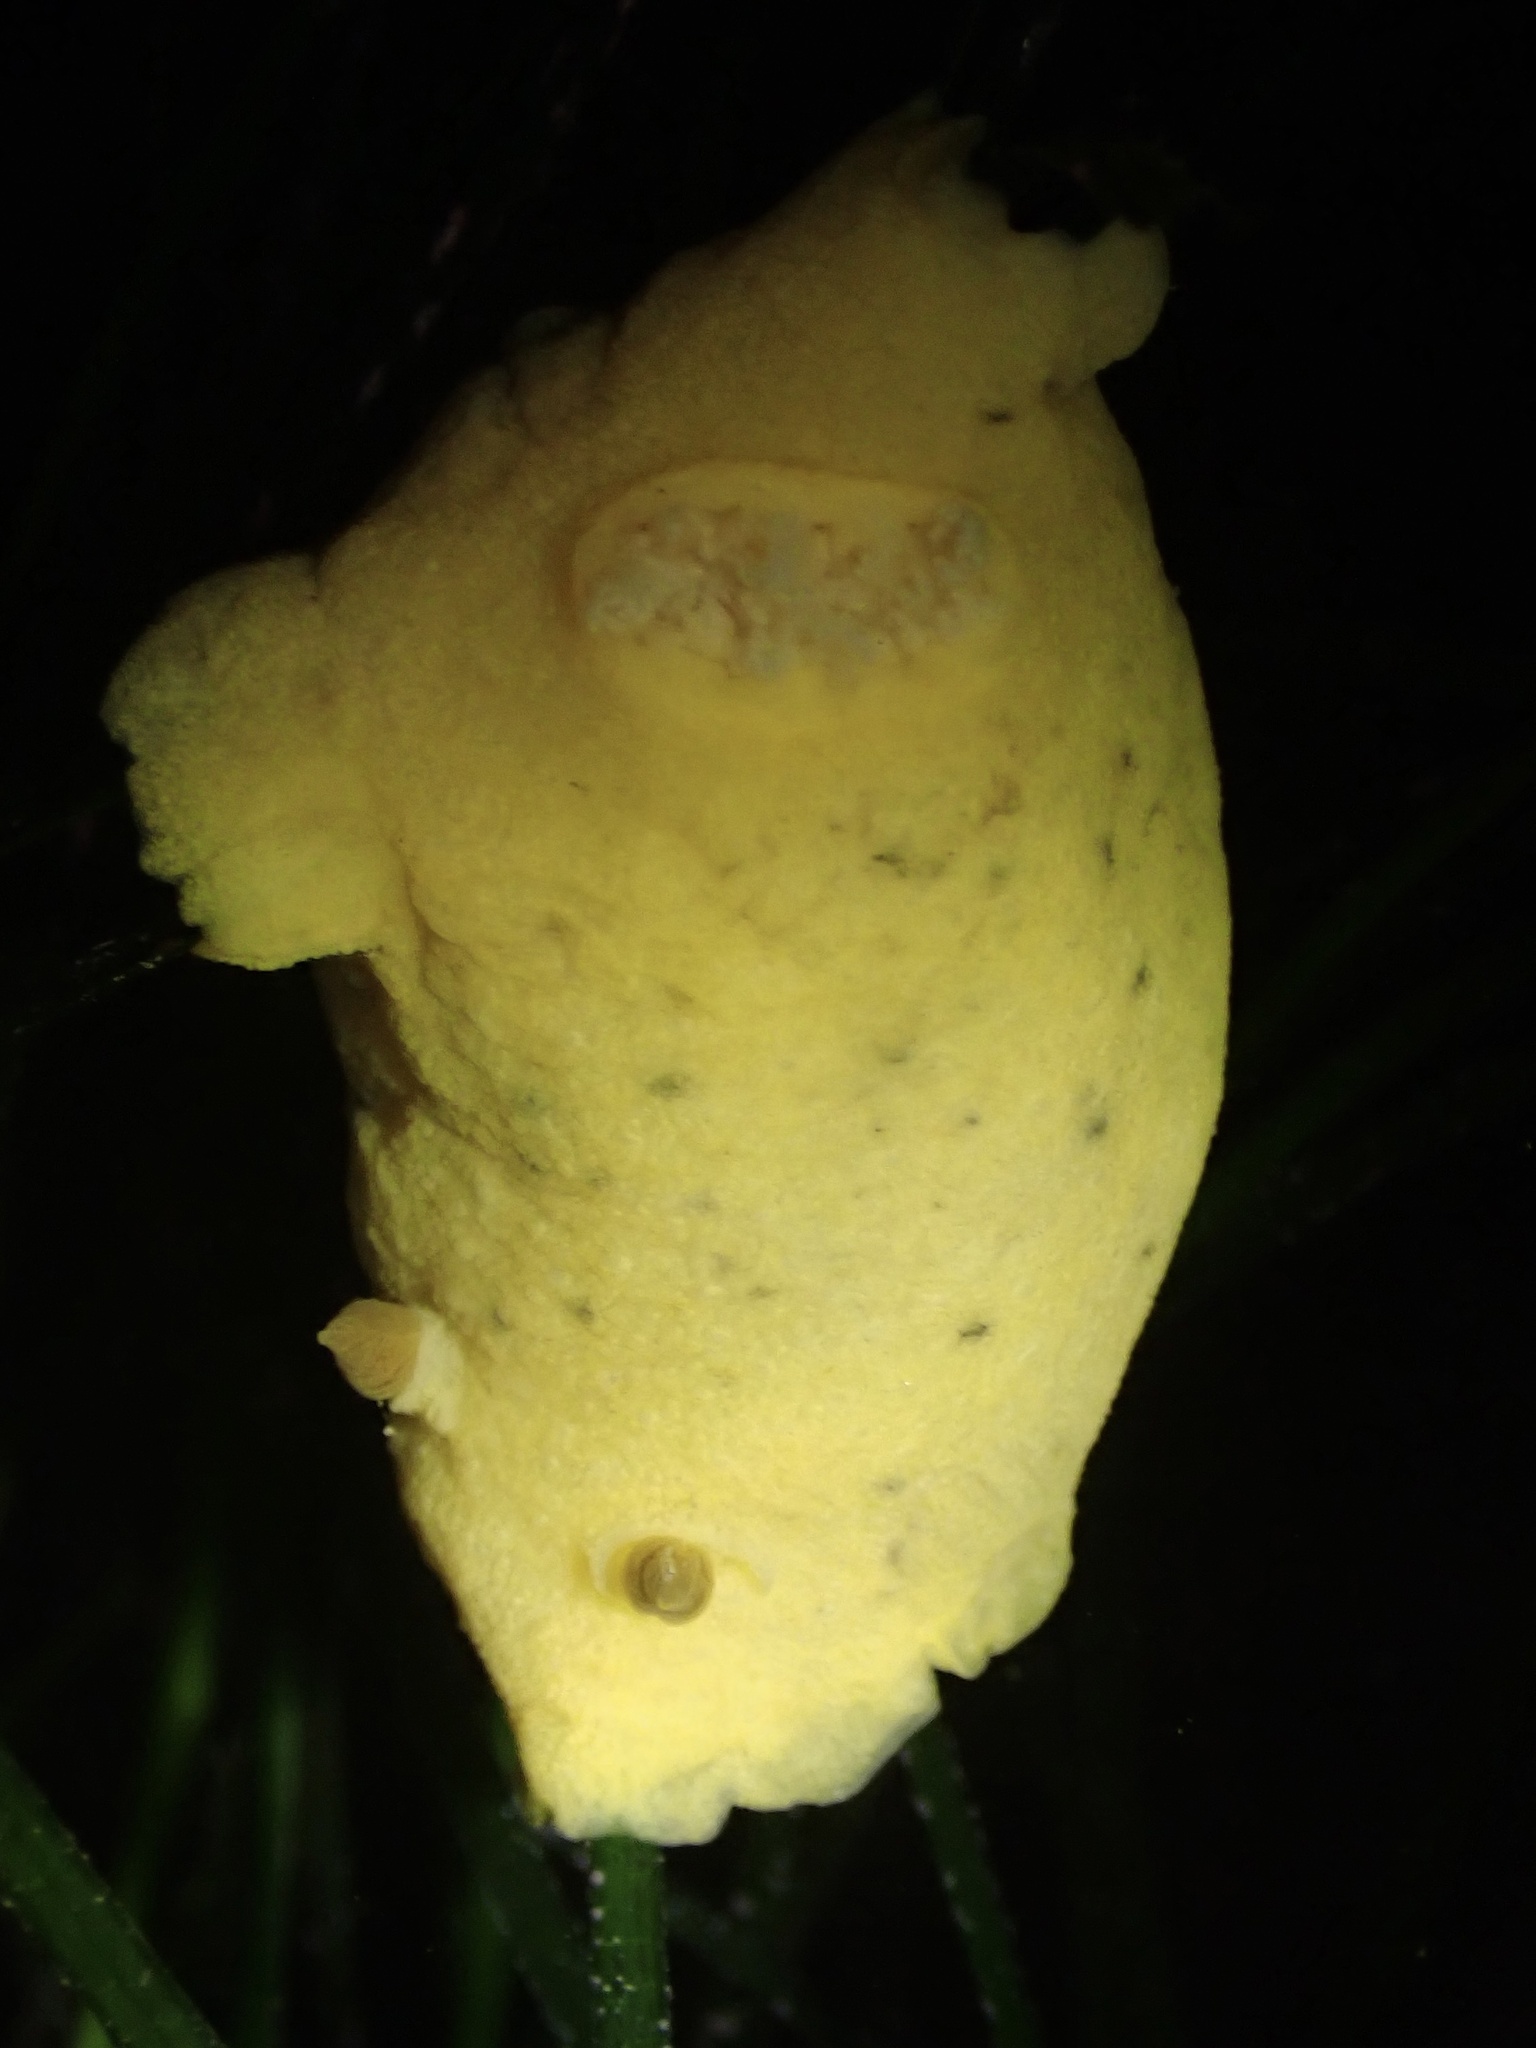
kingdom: Animalia
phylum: Mollusca
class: Gastropoda
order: Nudibranchia
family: Discodorididae
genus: Geitodoris
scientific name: Geitodoris heathi
